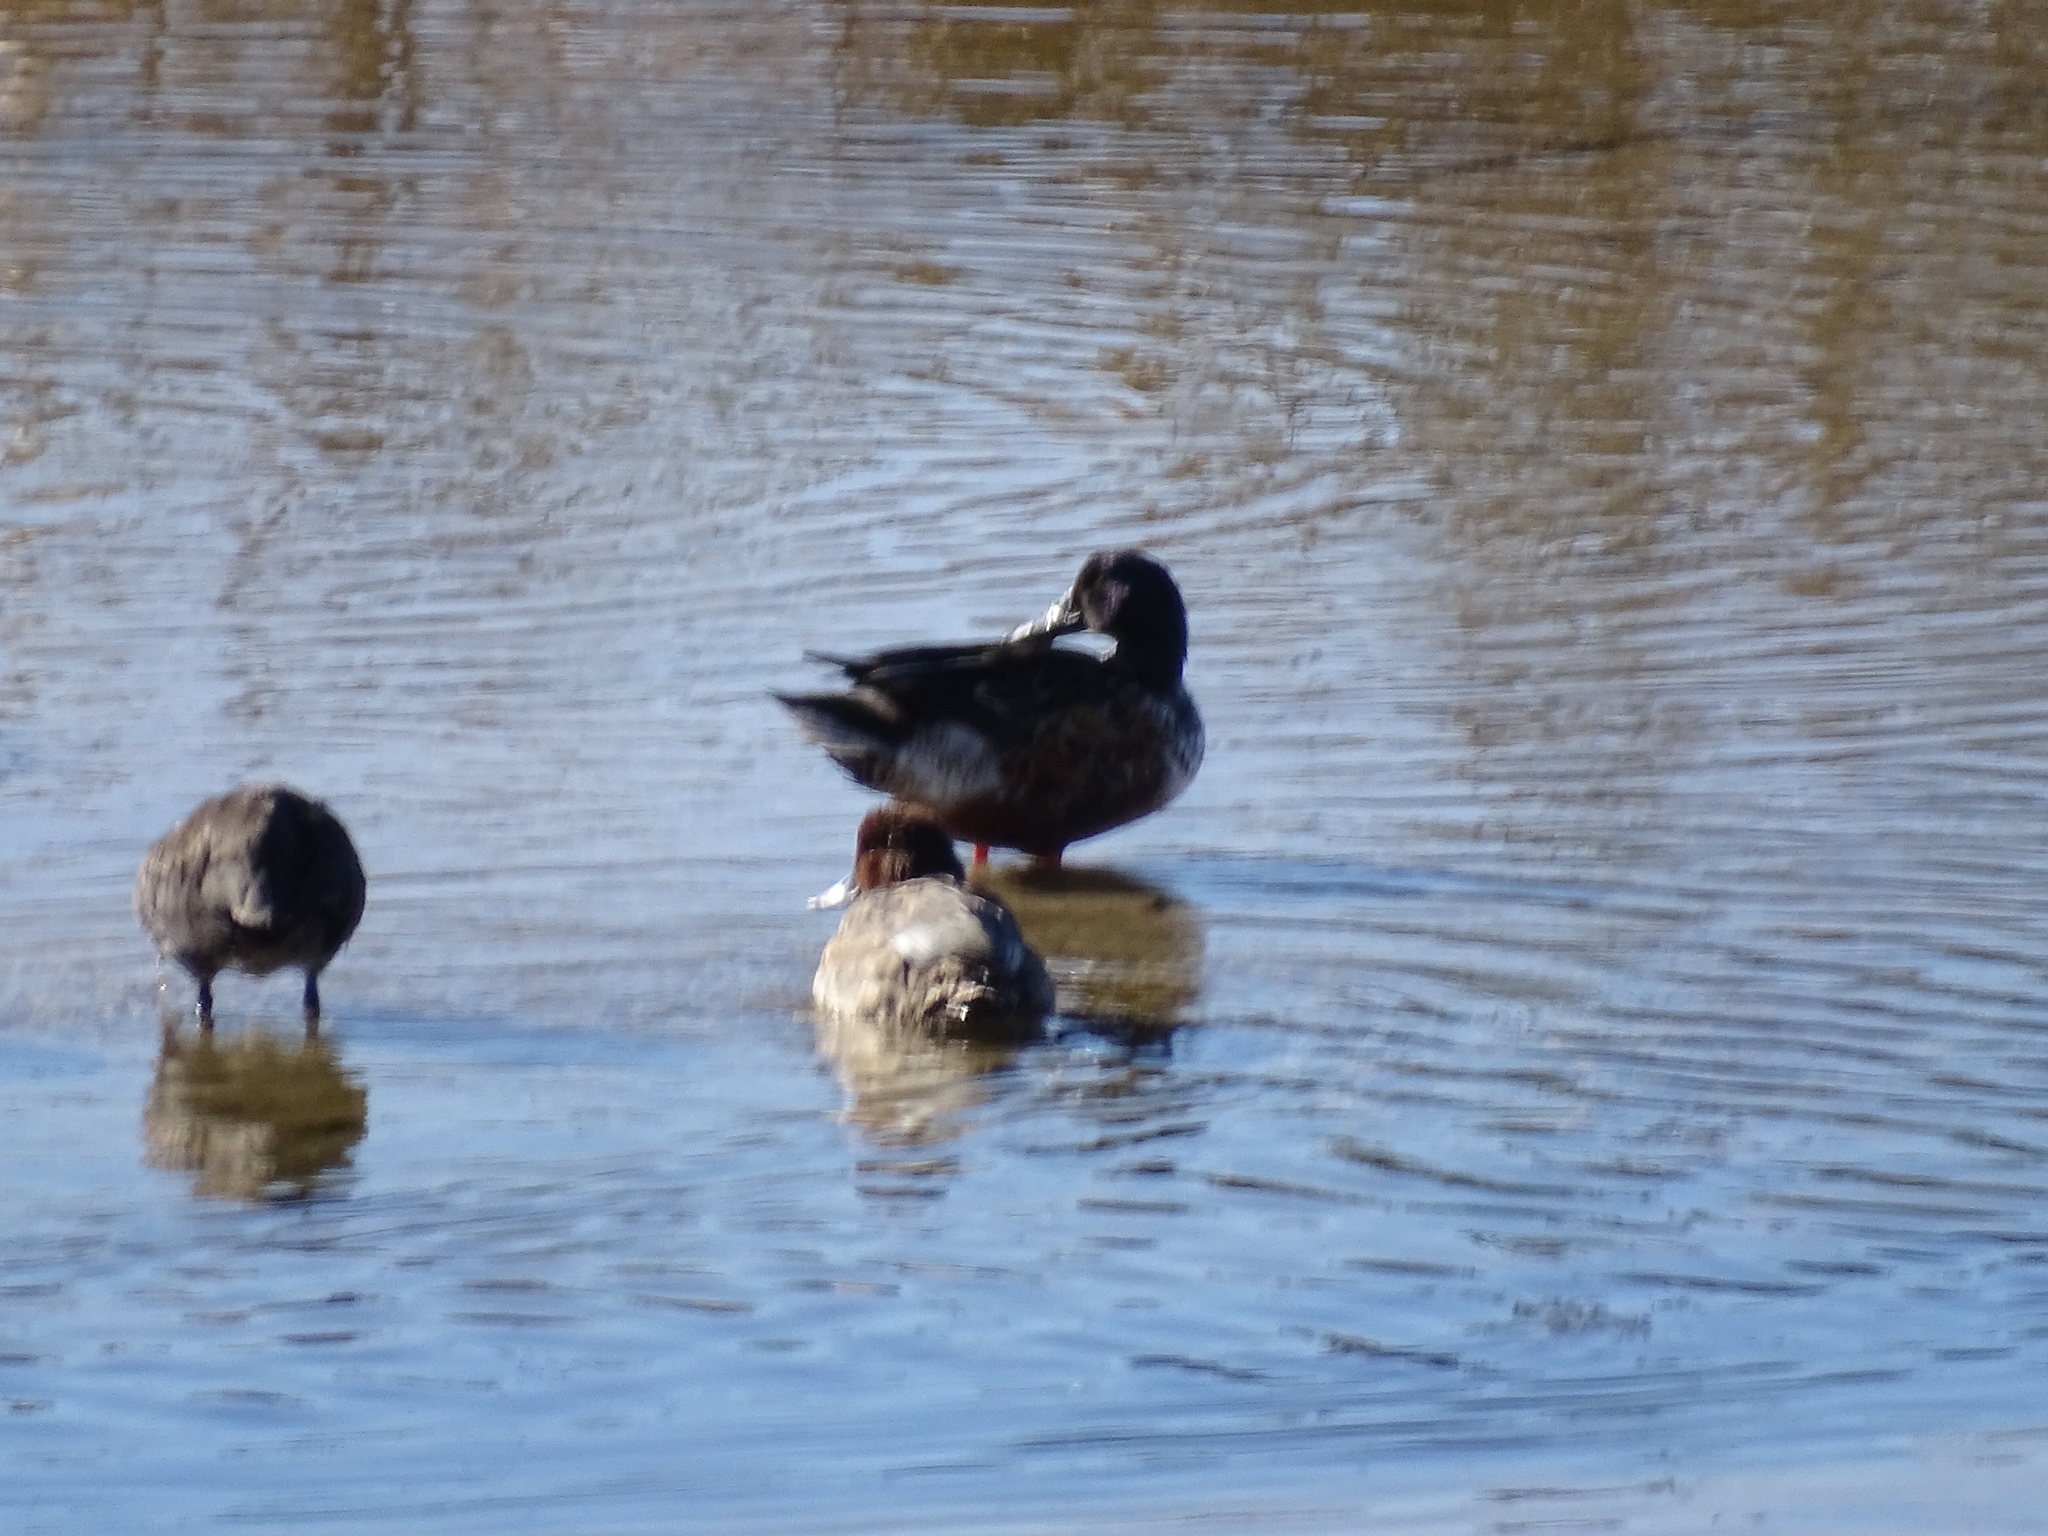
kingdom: Animalia
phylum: Chordata
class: Aves
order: Anseriformes
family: Anatidae
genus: Anas
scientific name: Anas crecca
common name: Eurasian teal
